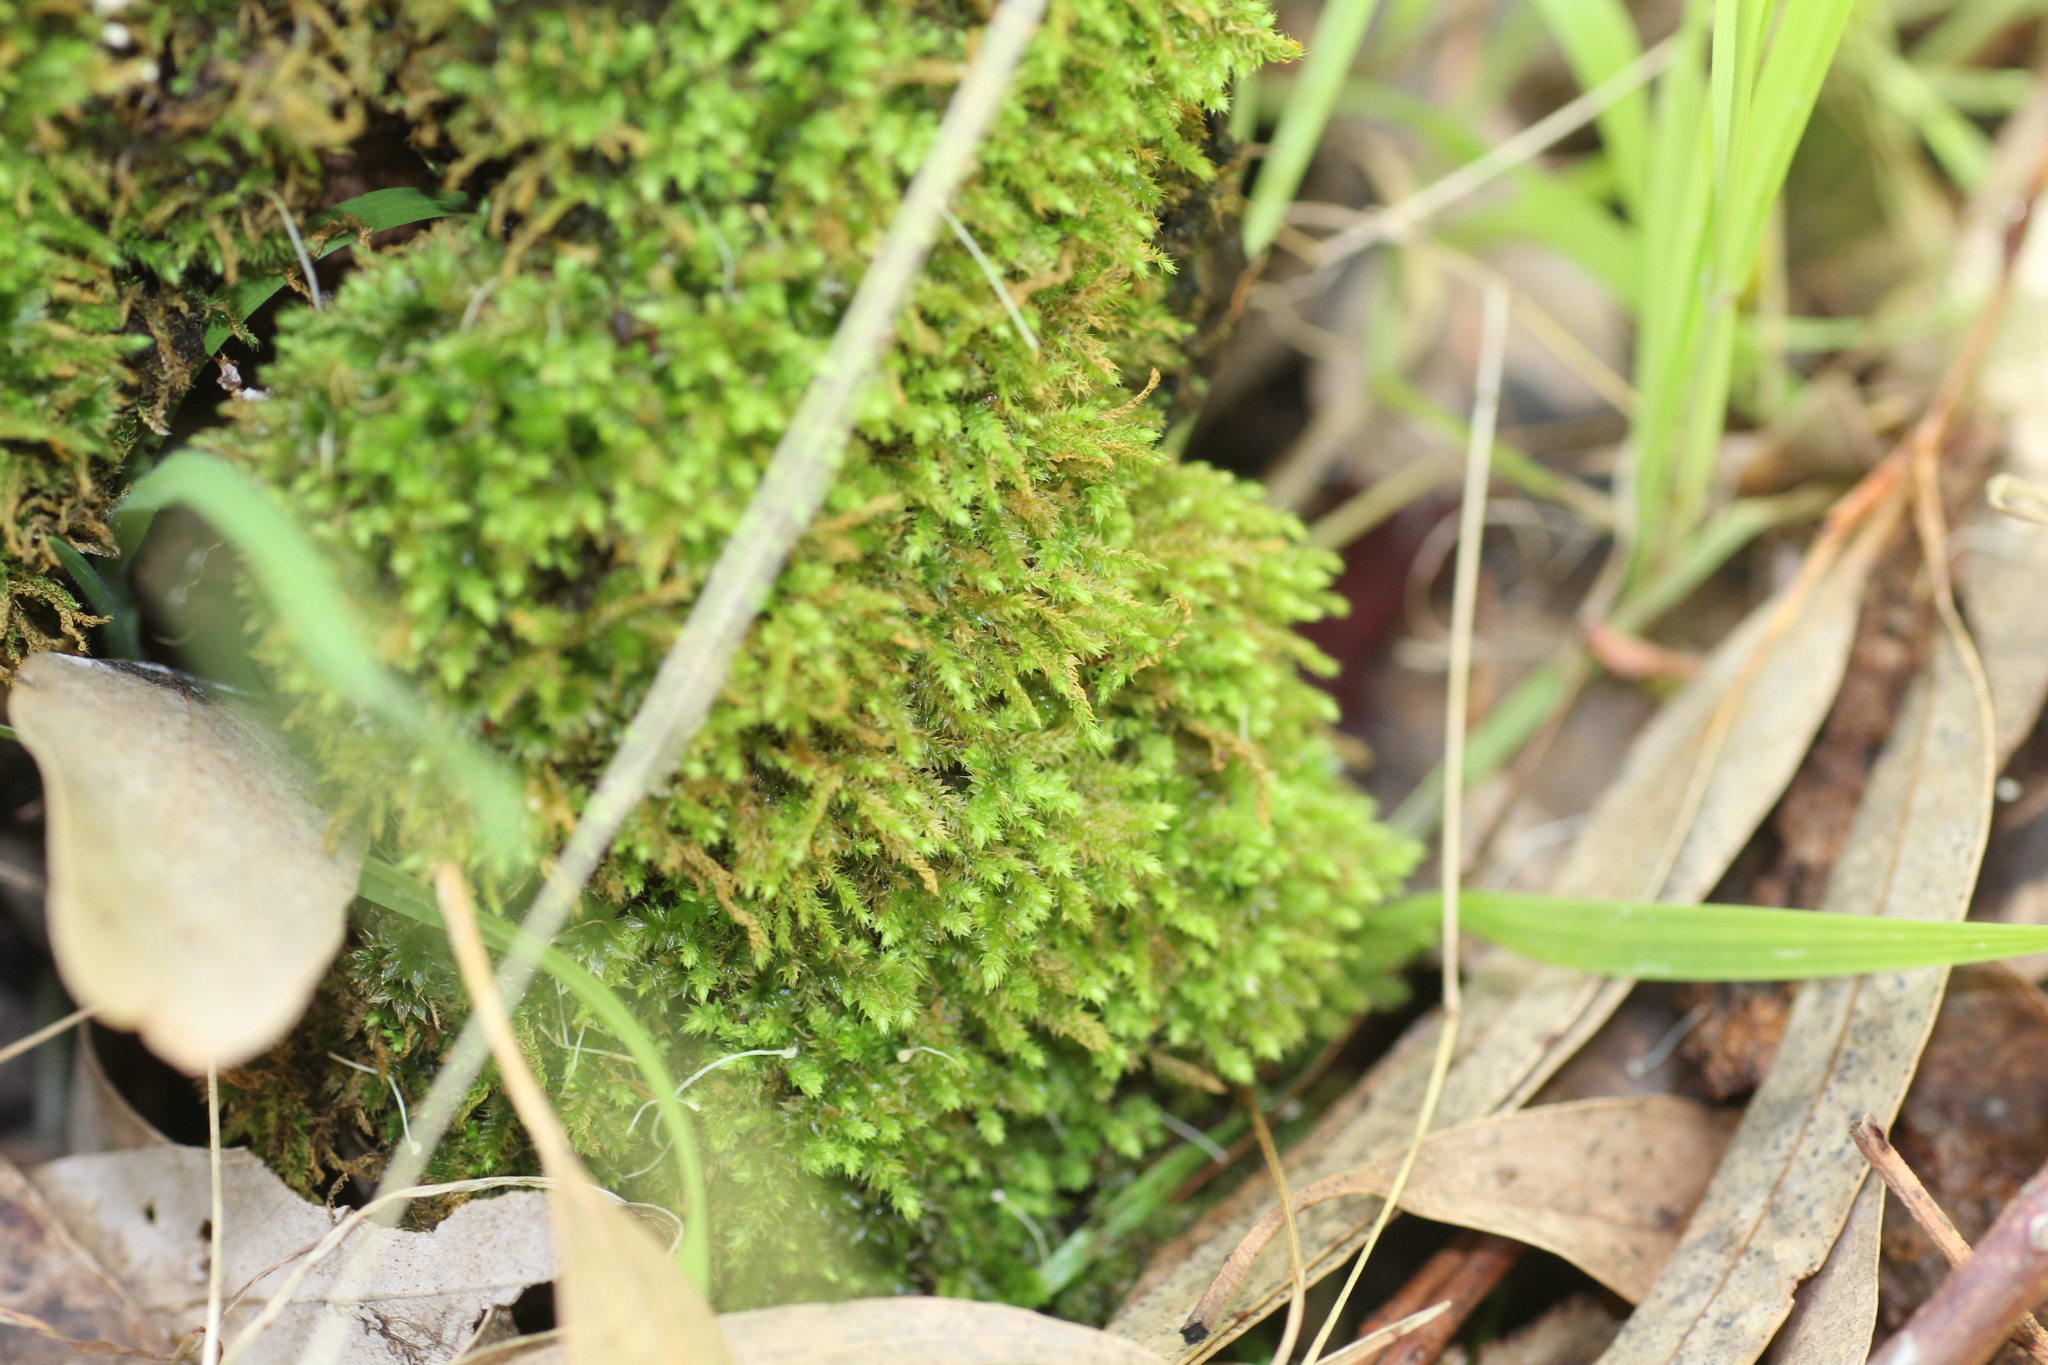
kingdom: Plantae
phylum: Bryophyta
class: Bryopsida
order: Hypnodendrales
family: Racopilaceae
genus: Racopilum
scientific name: Racopilum cuspidigerum
